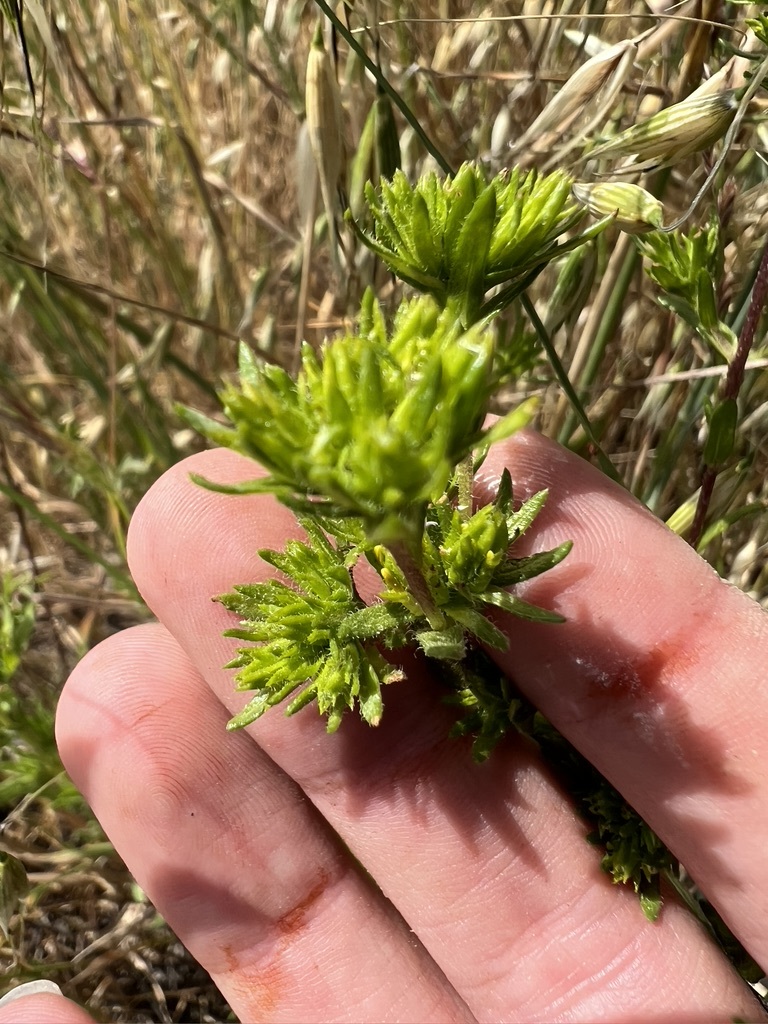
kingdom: Plantae
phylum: Tracheophyta
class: Magnoliopsida
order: Asterales
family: Asteraceae
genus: Deinandra
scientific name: Deinandra fasciculata
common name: Clustered tarweed
